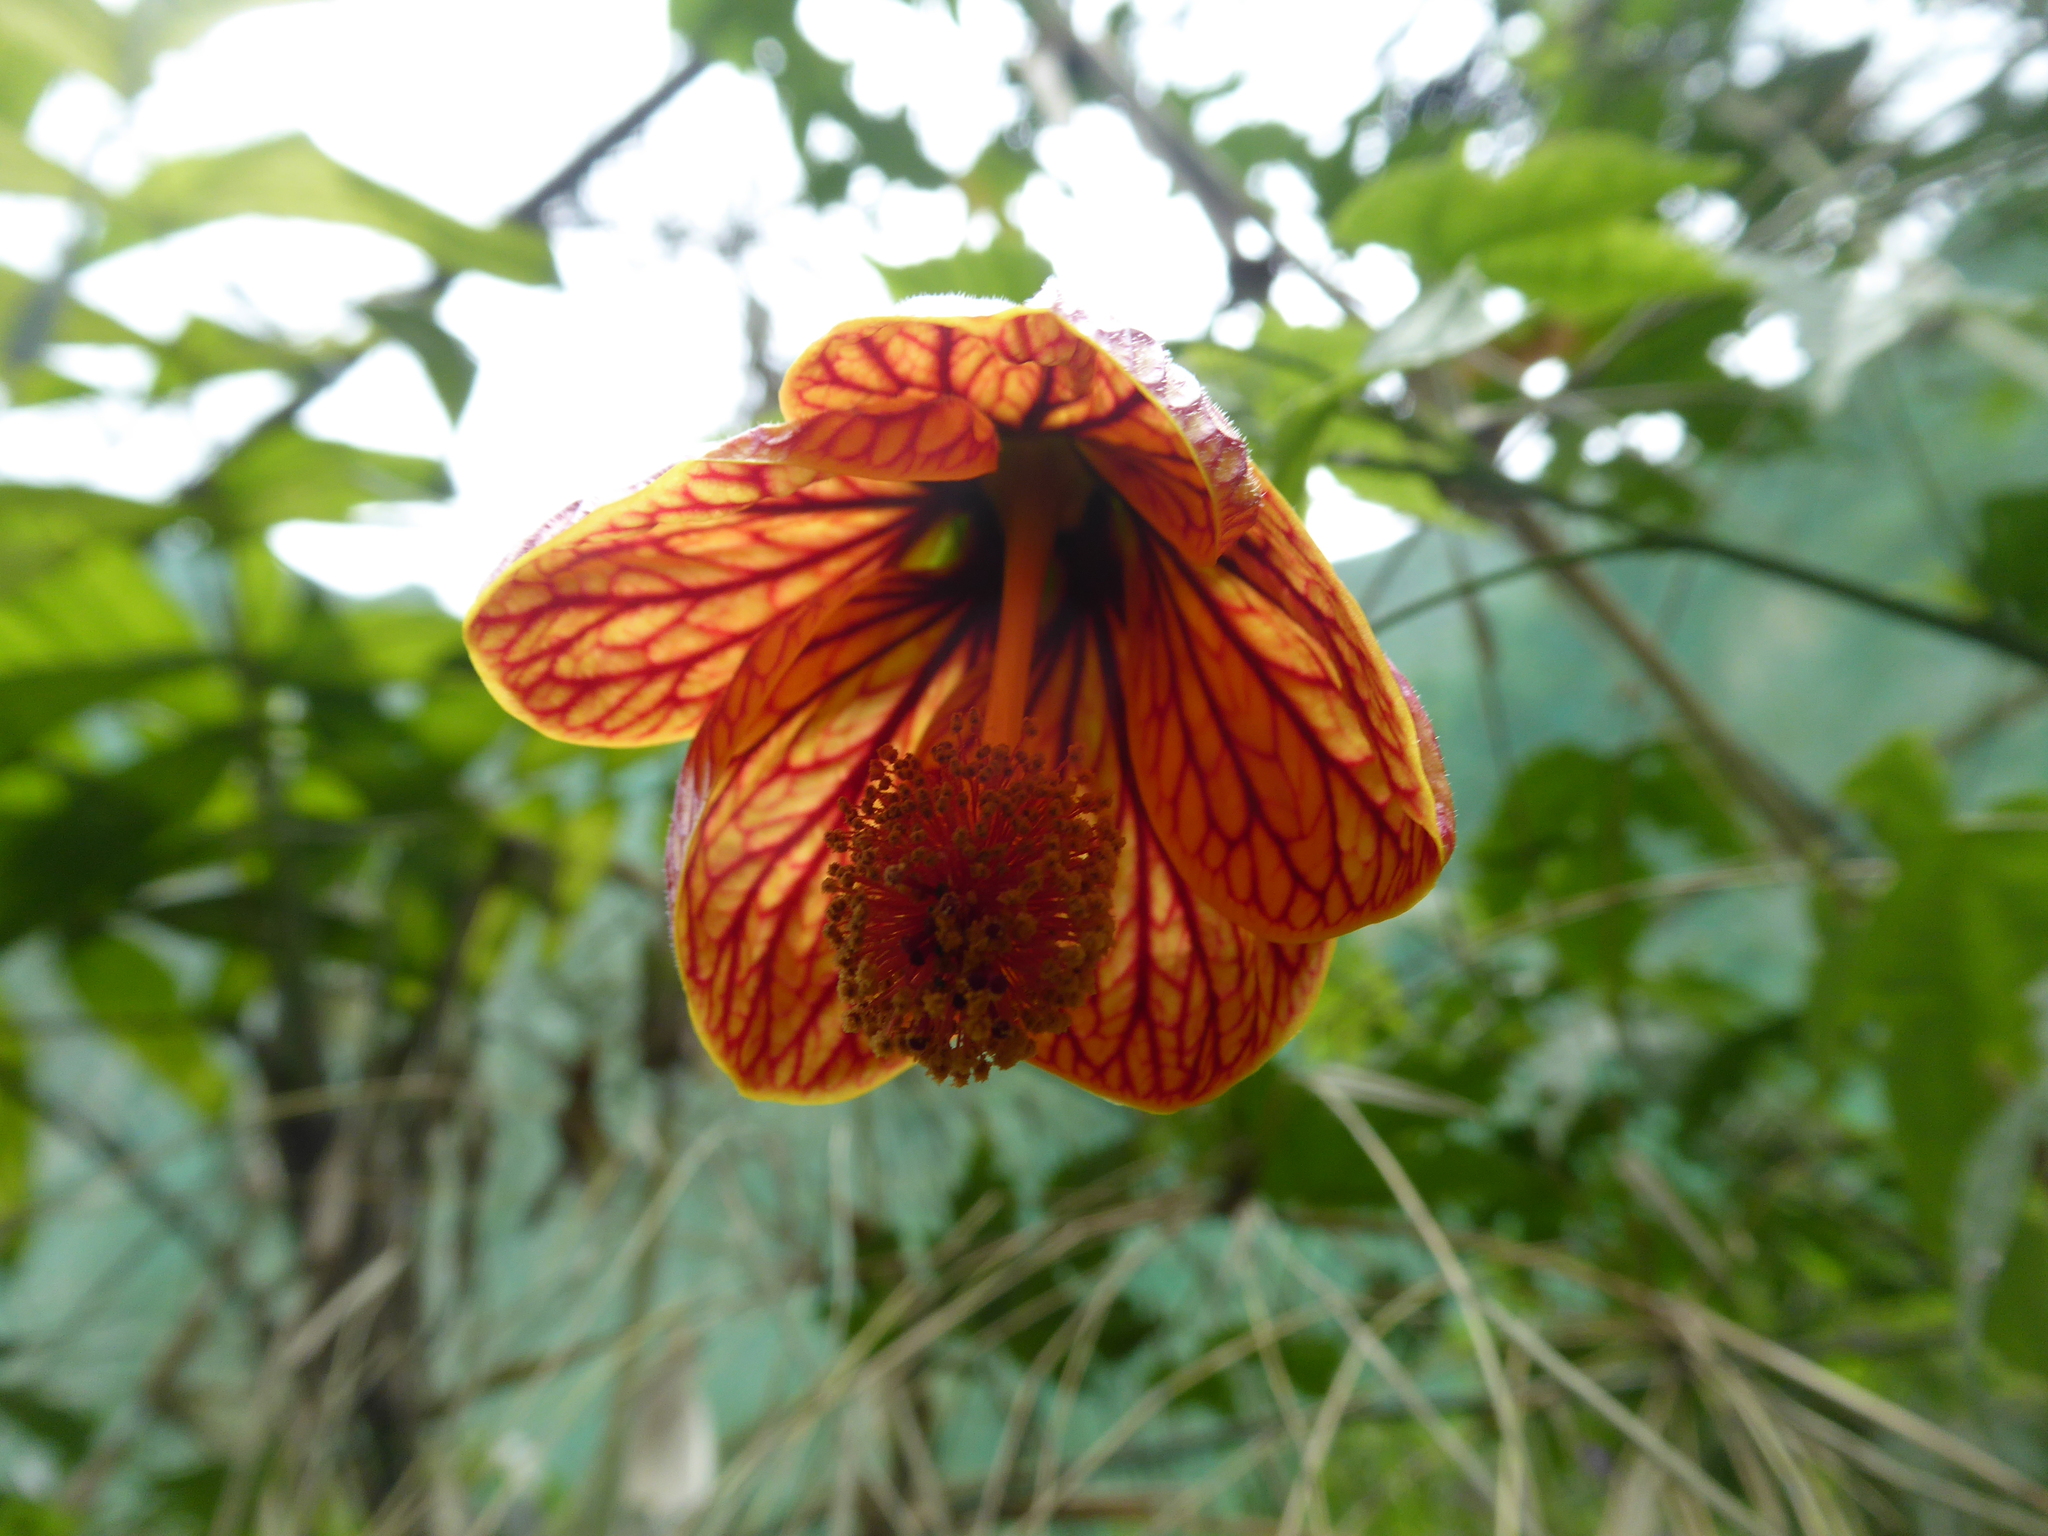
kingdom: Plantae
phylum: Tracheophyta
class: Magnoliopsida
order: Malvales
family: Malvaceae
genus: Callianthe
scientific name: Callianthe picta
